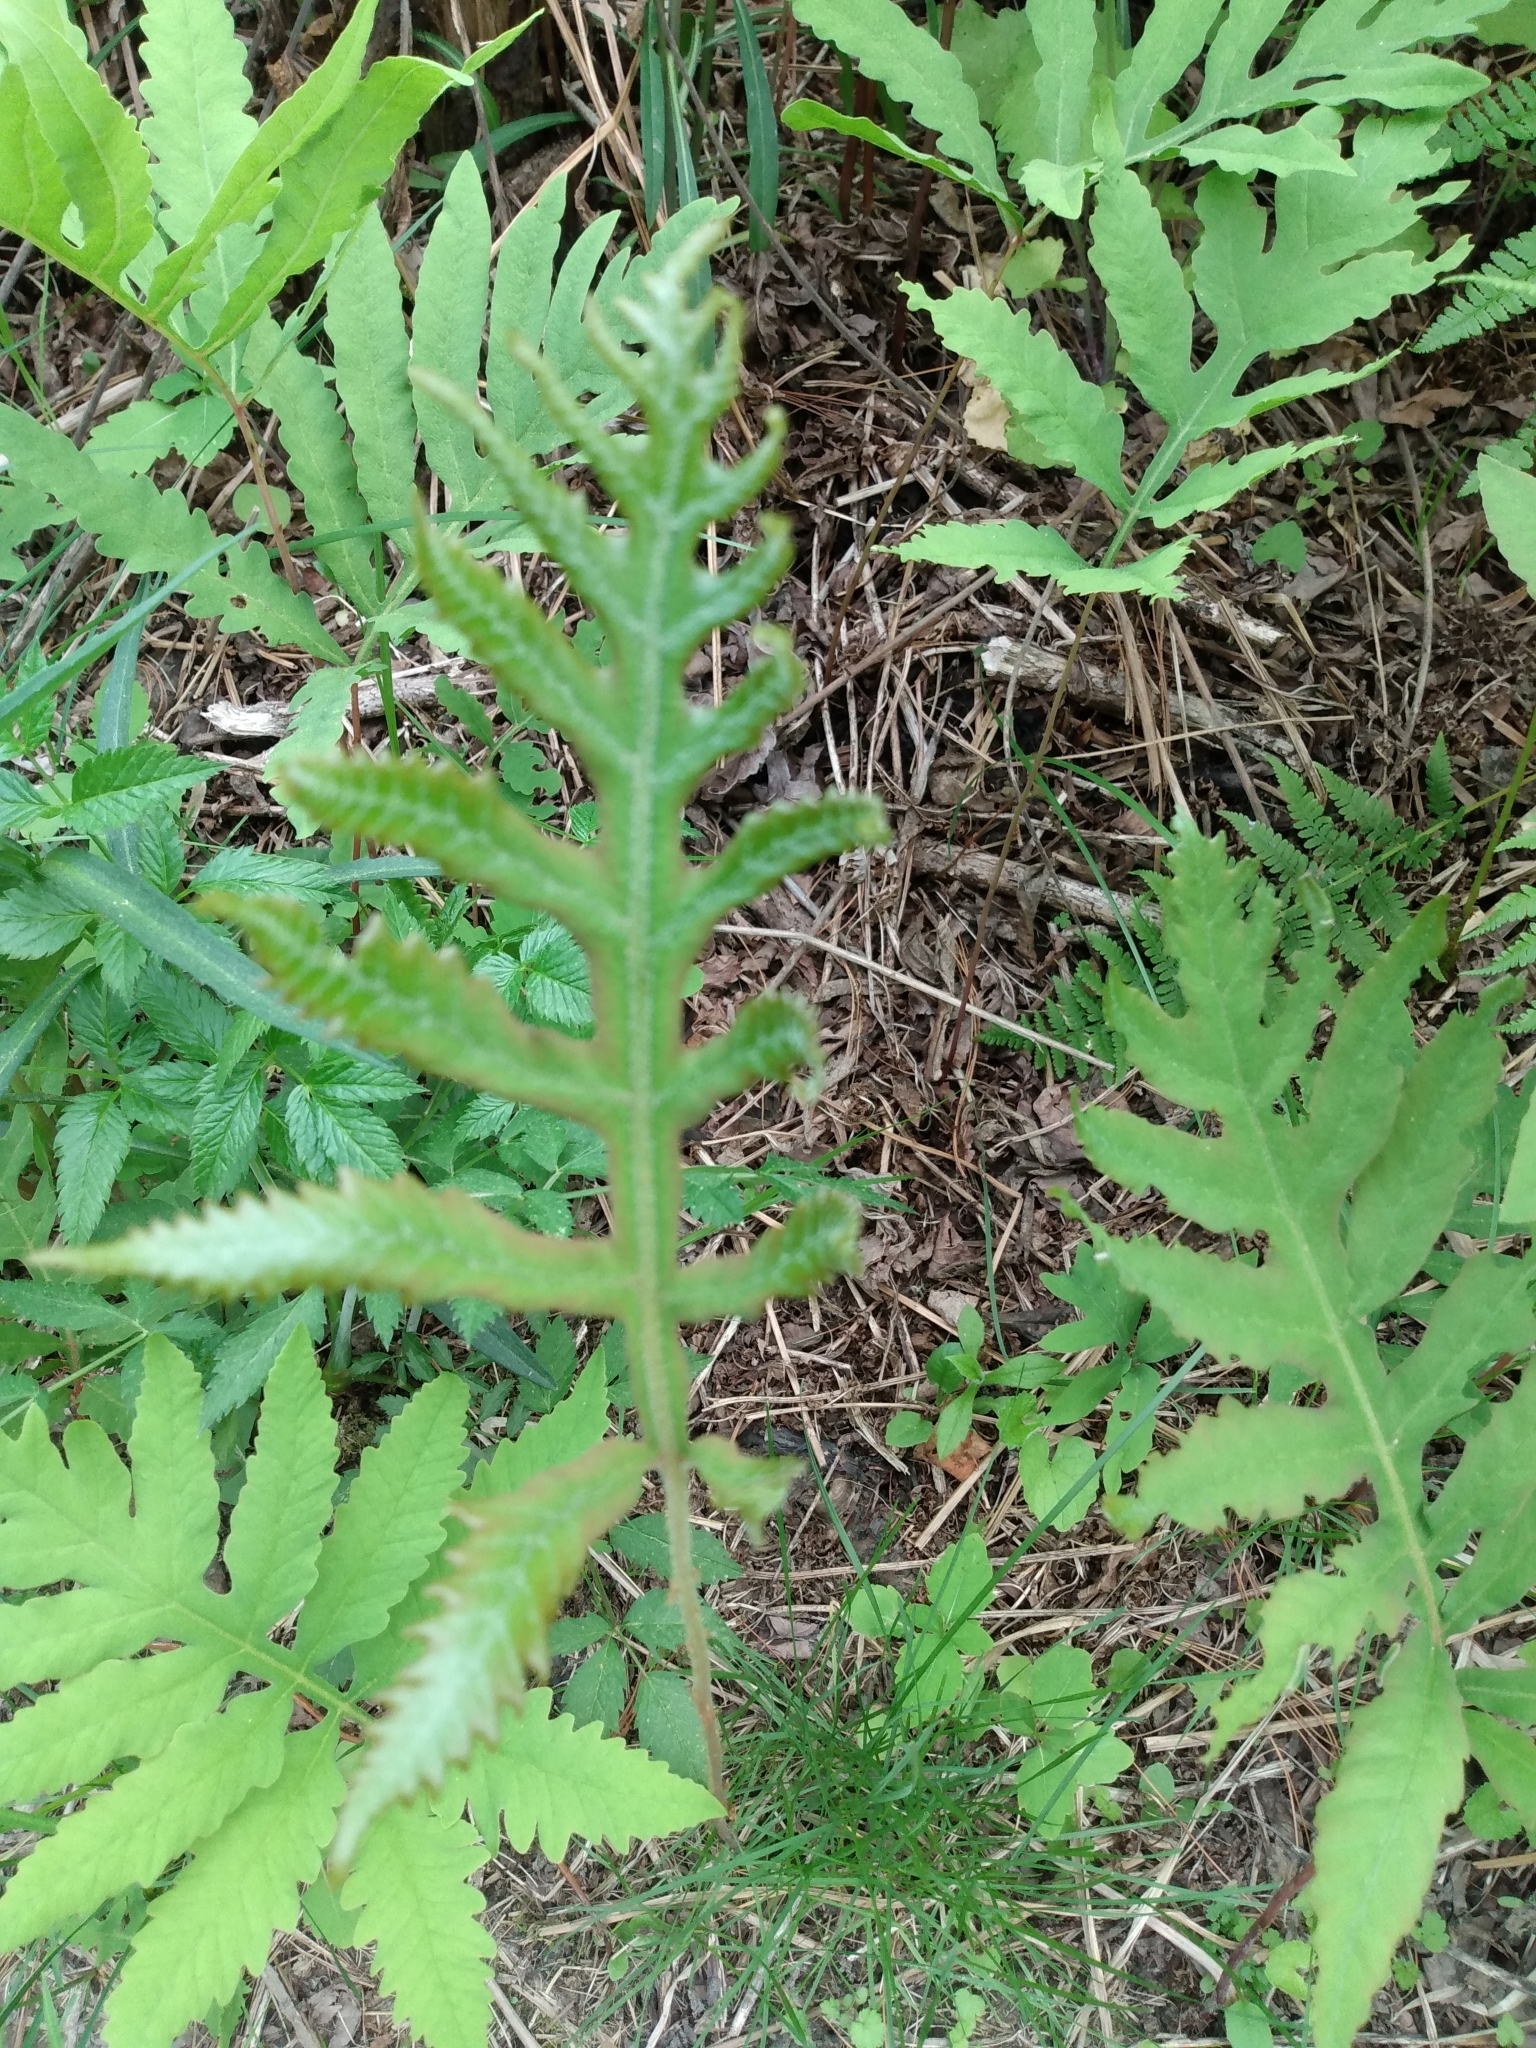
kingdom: Plantae
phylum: Tracheophyta
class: Polypodiopsida
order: Polypodiales
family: Onocleaceae
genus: Onoclea
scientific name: Onoclea sensibilis
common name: Sensitive fern
